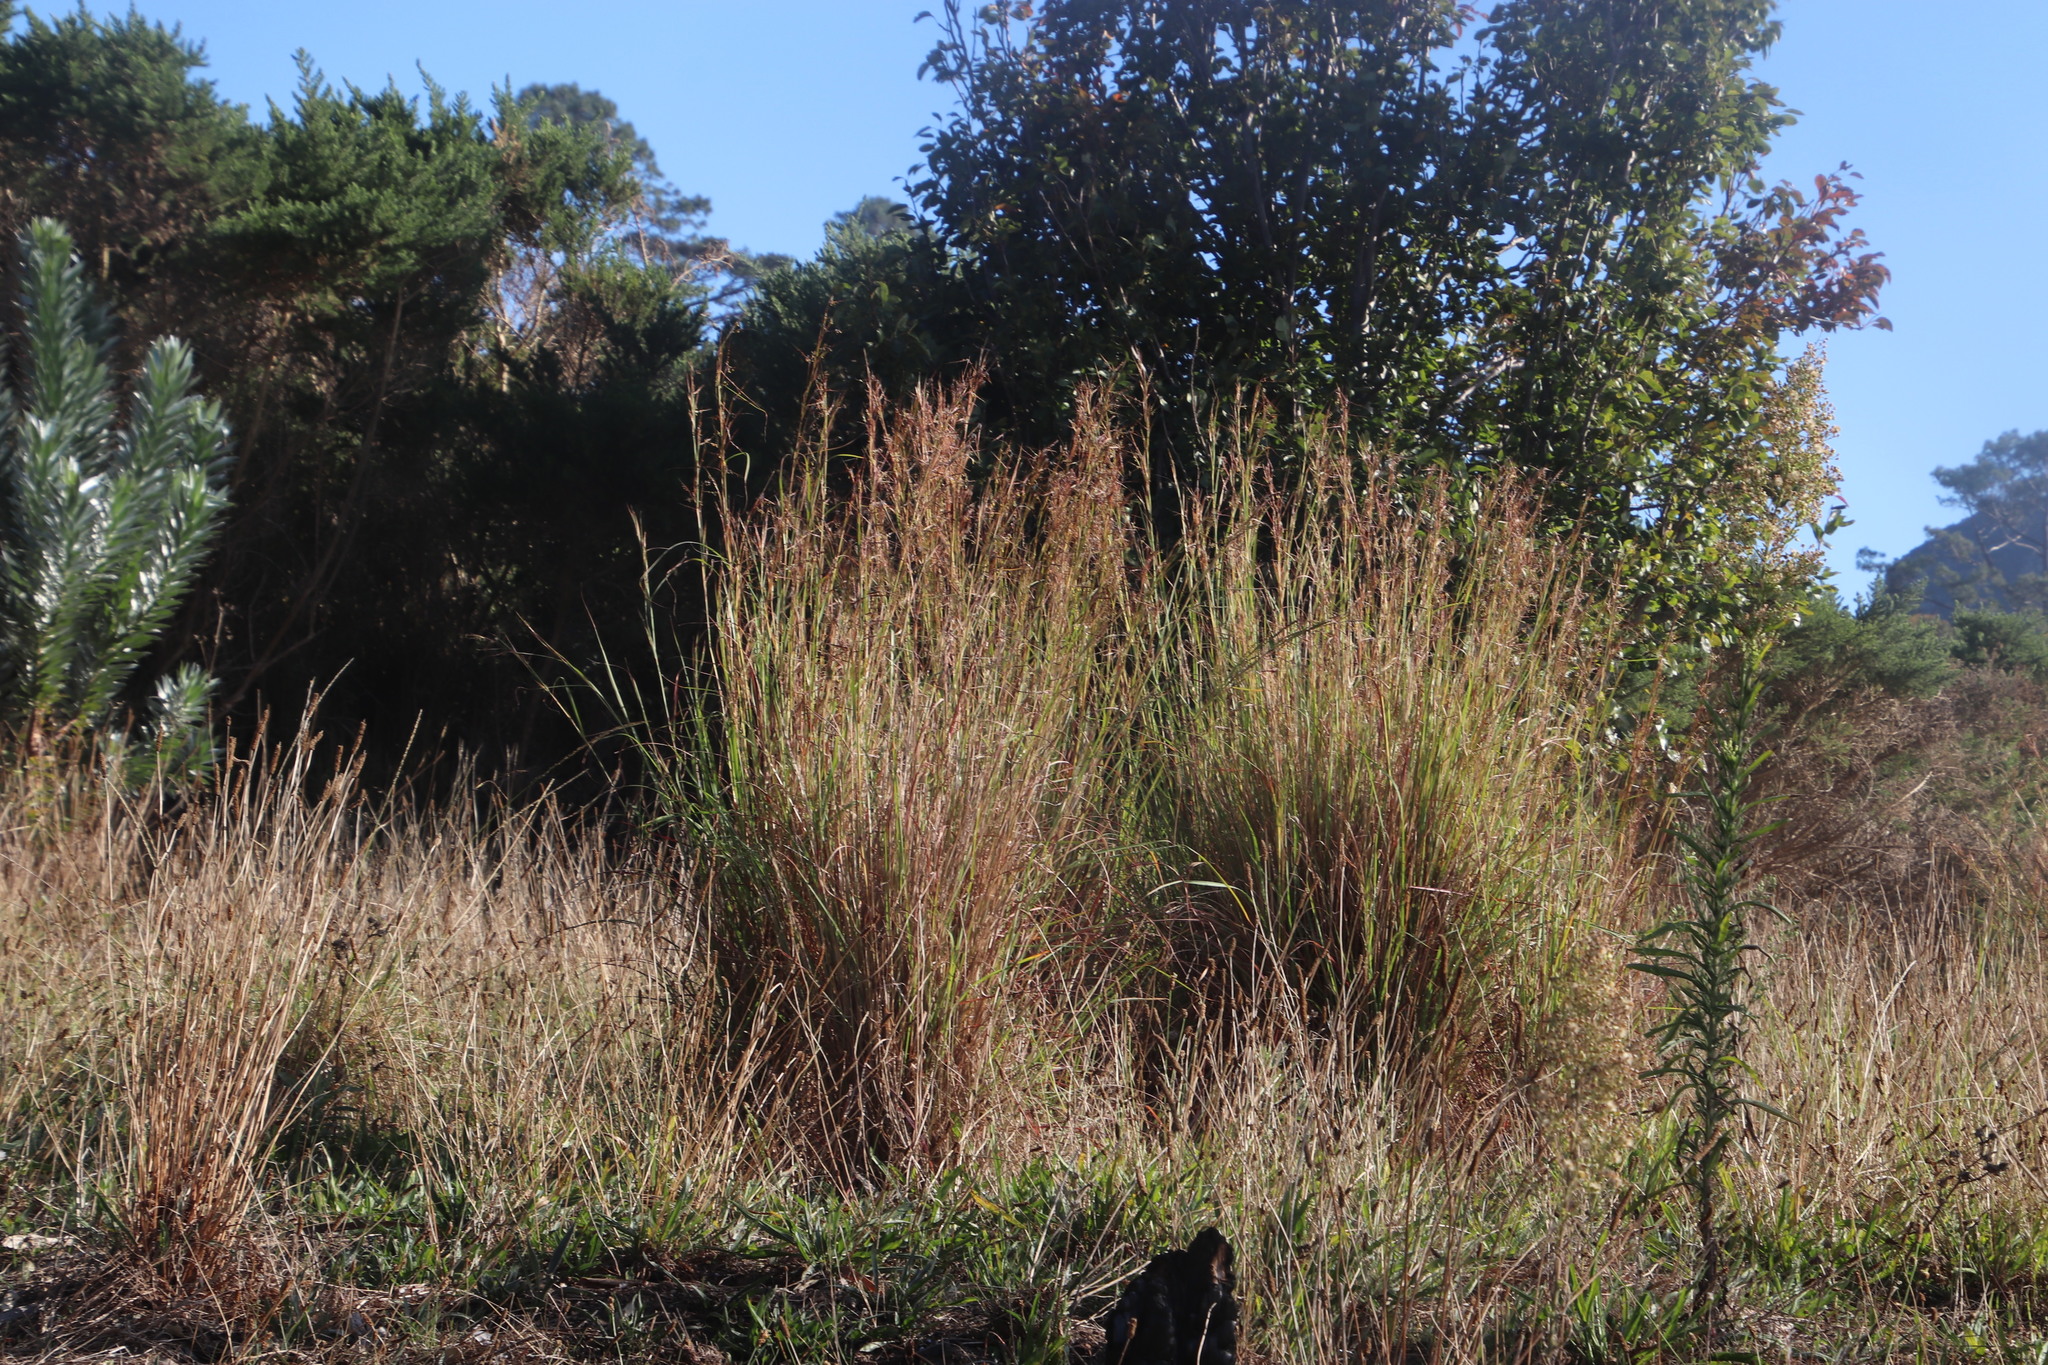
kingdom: Plantae
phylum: Tracheophyta
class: Liliopsida
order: Poales
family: Poaceae
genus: Hyparrhenia
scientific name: Hyparrhenia hirta
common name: Thatching grass
